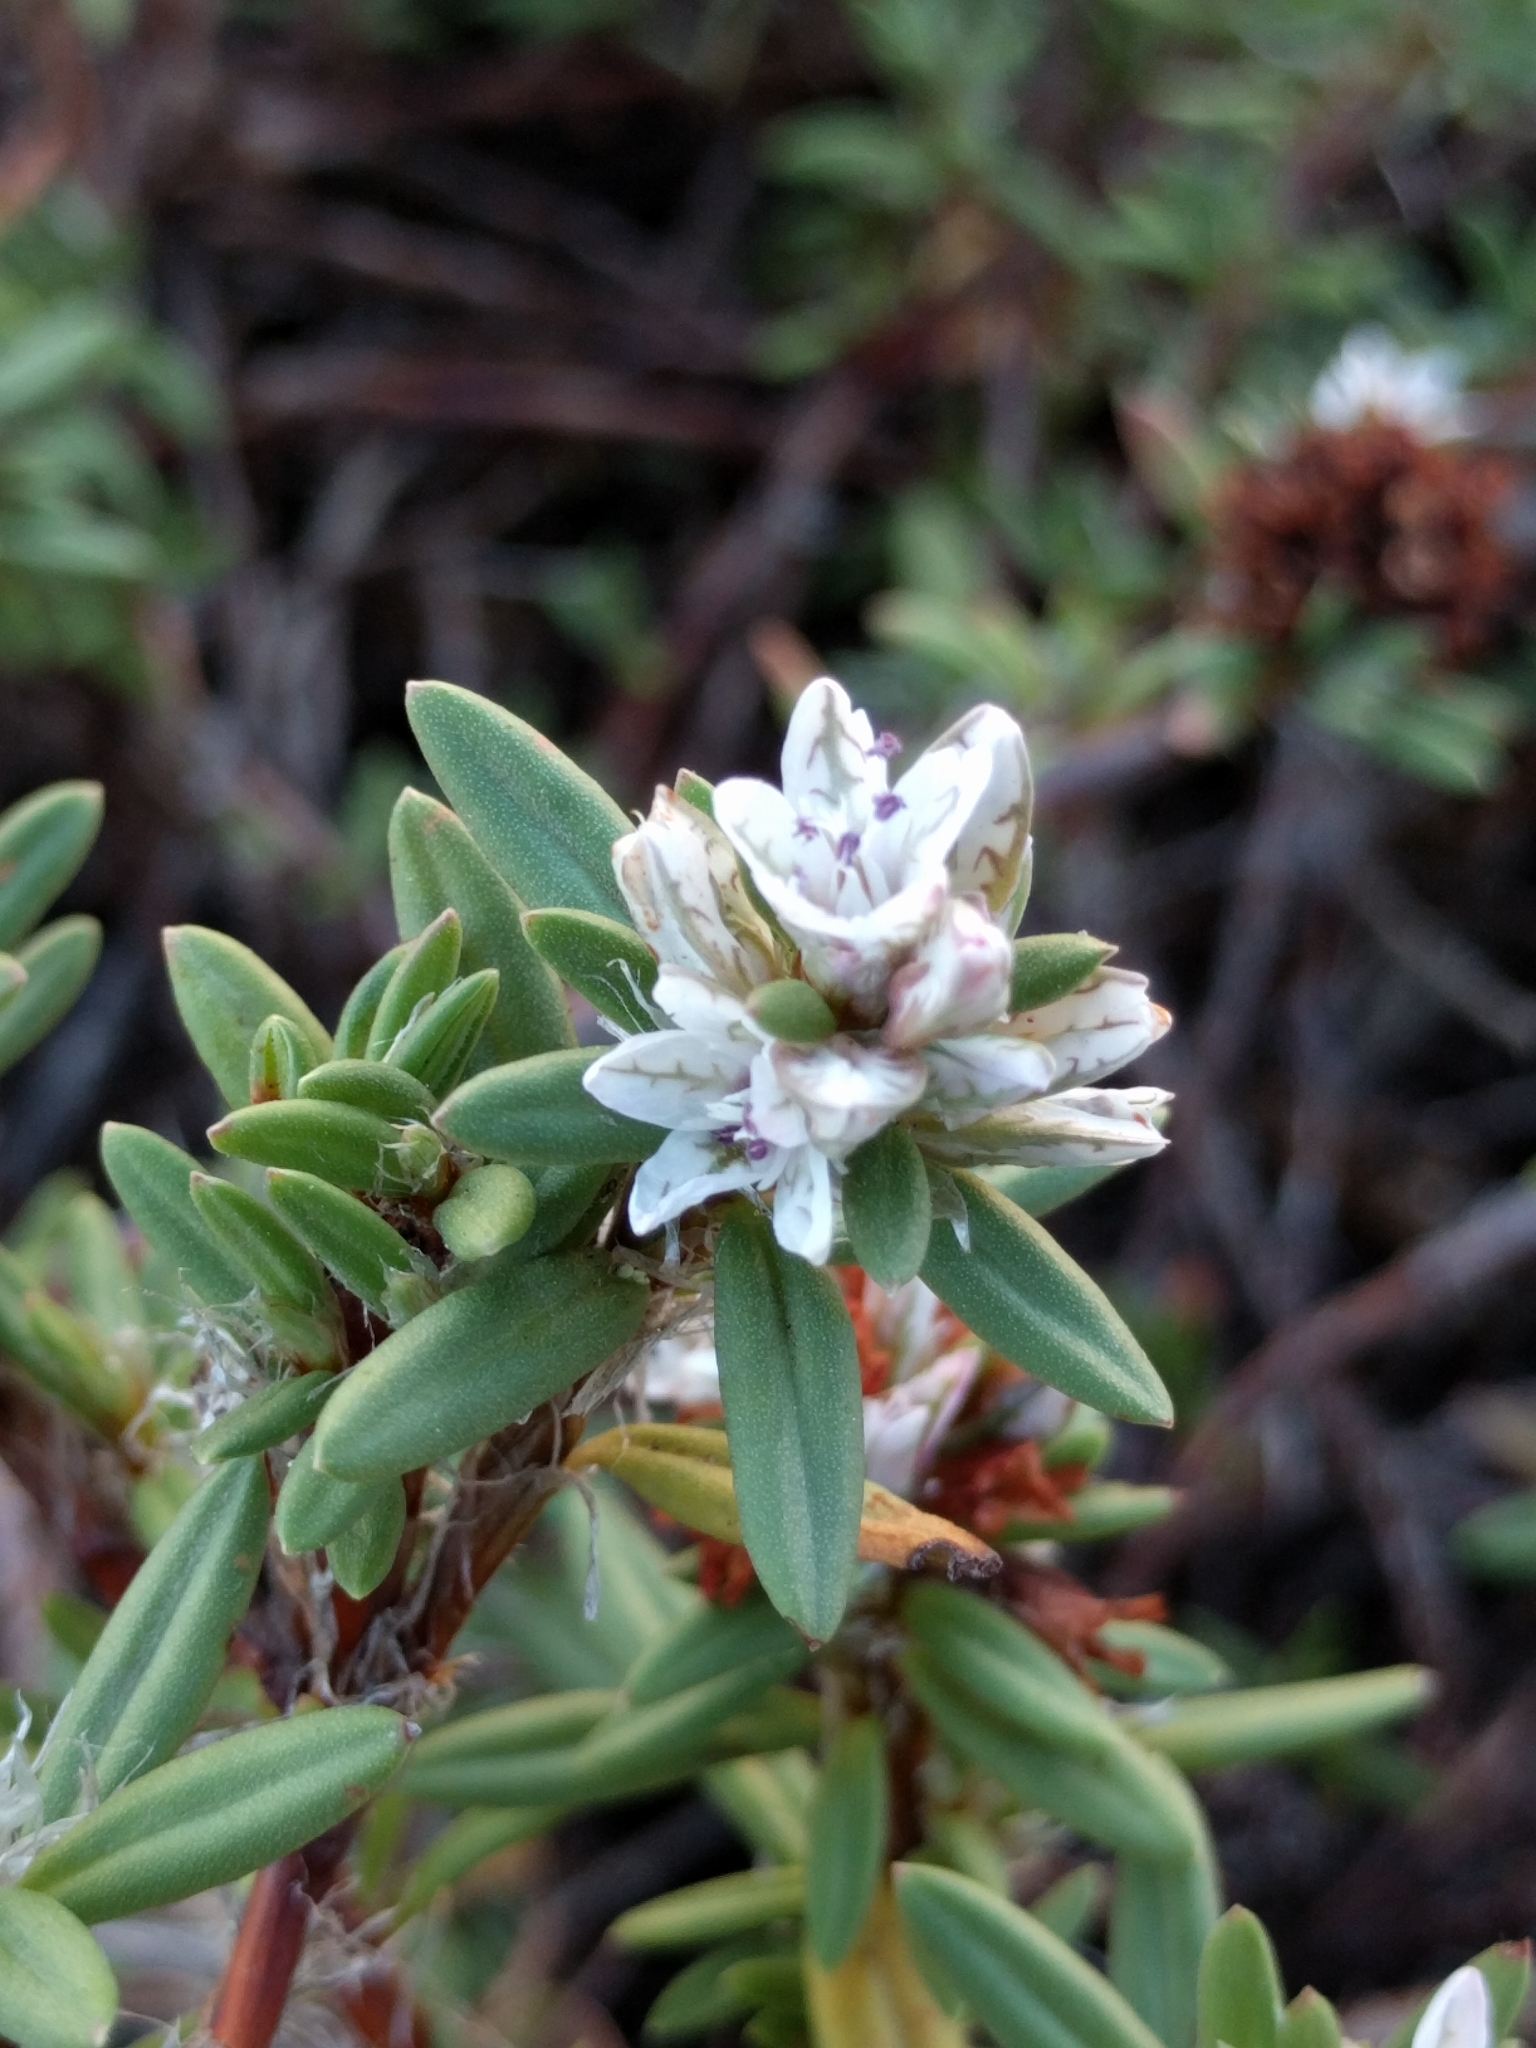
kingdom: Plantae
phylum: Tracheophyta
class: Magnoliopsida
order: Caryophyllales
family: Polygonaceae
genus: Polygonum
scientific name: Polygonum paronychia
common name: Dune knotweed
